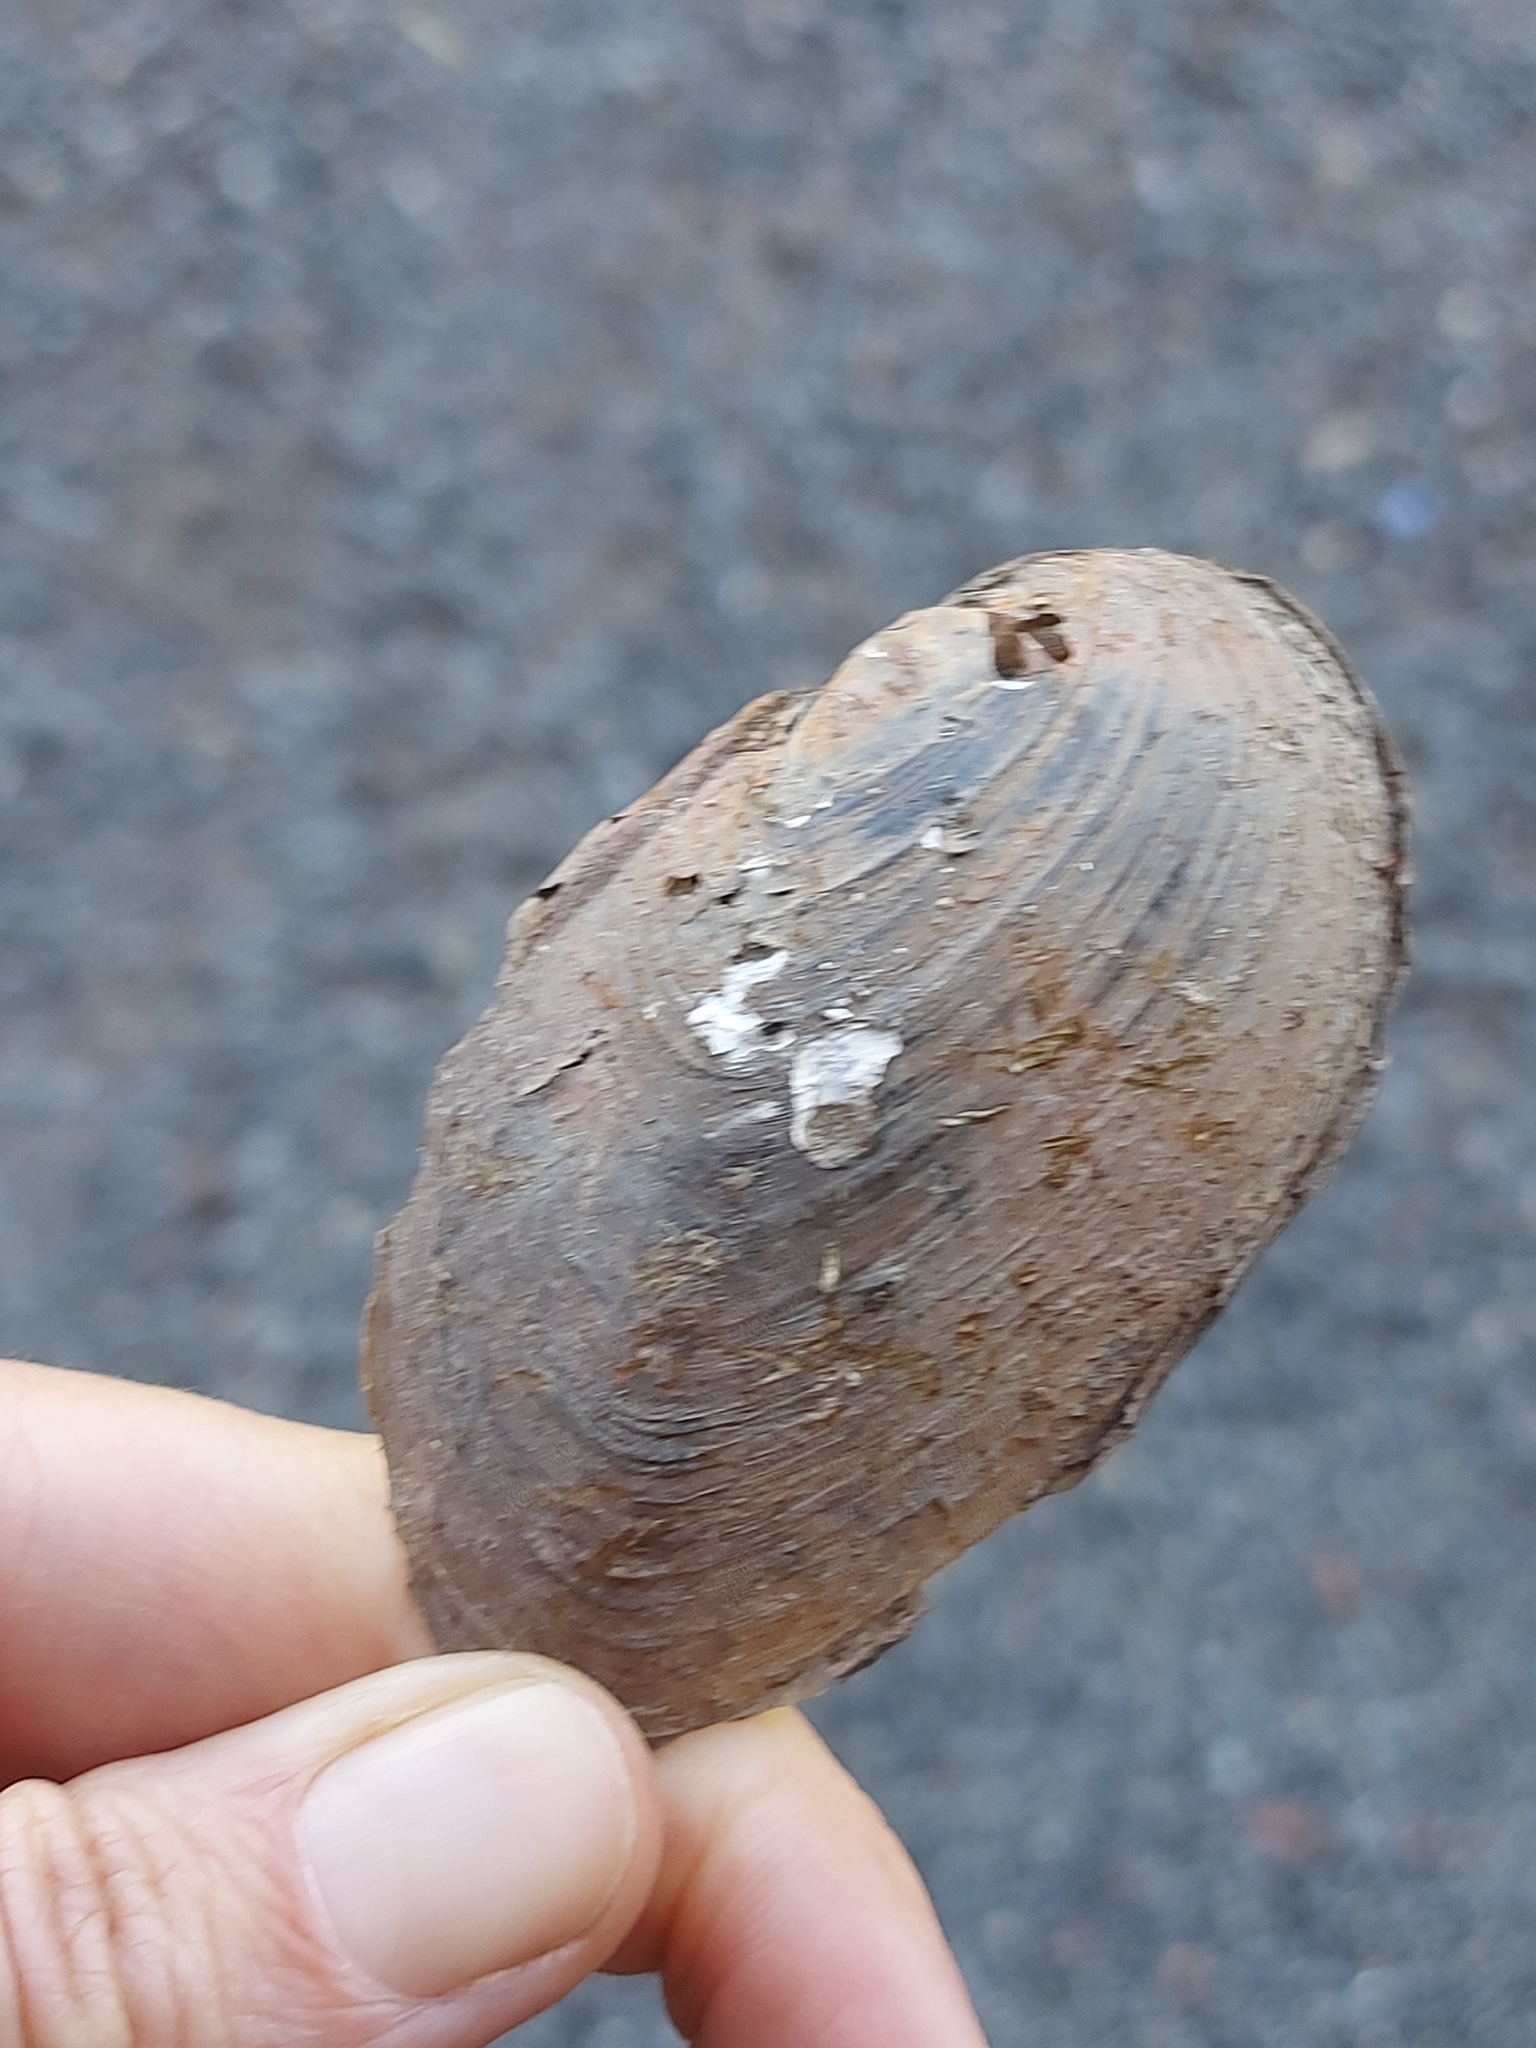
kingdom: Animalia
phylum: Mollusca
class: Bivalvia
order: Unionida
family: Unionidae
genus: Elliptio
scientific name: Elliptio complanata
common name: Eastern elliptio
